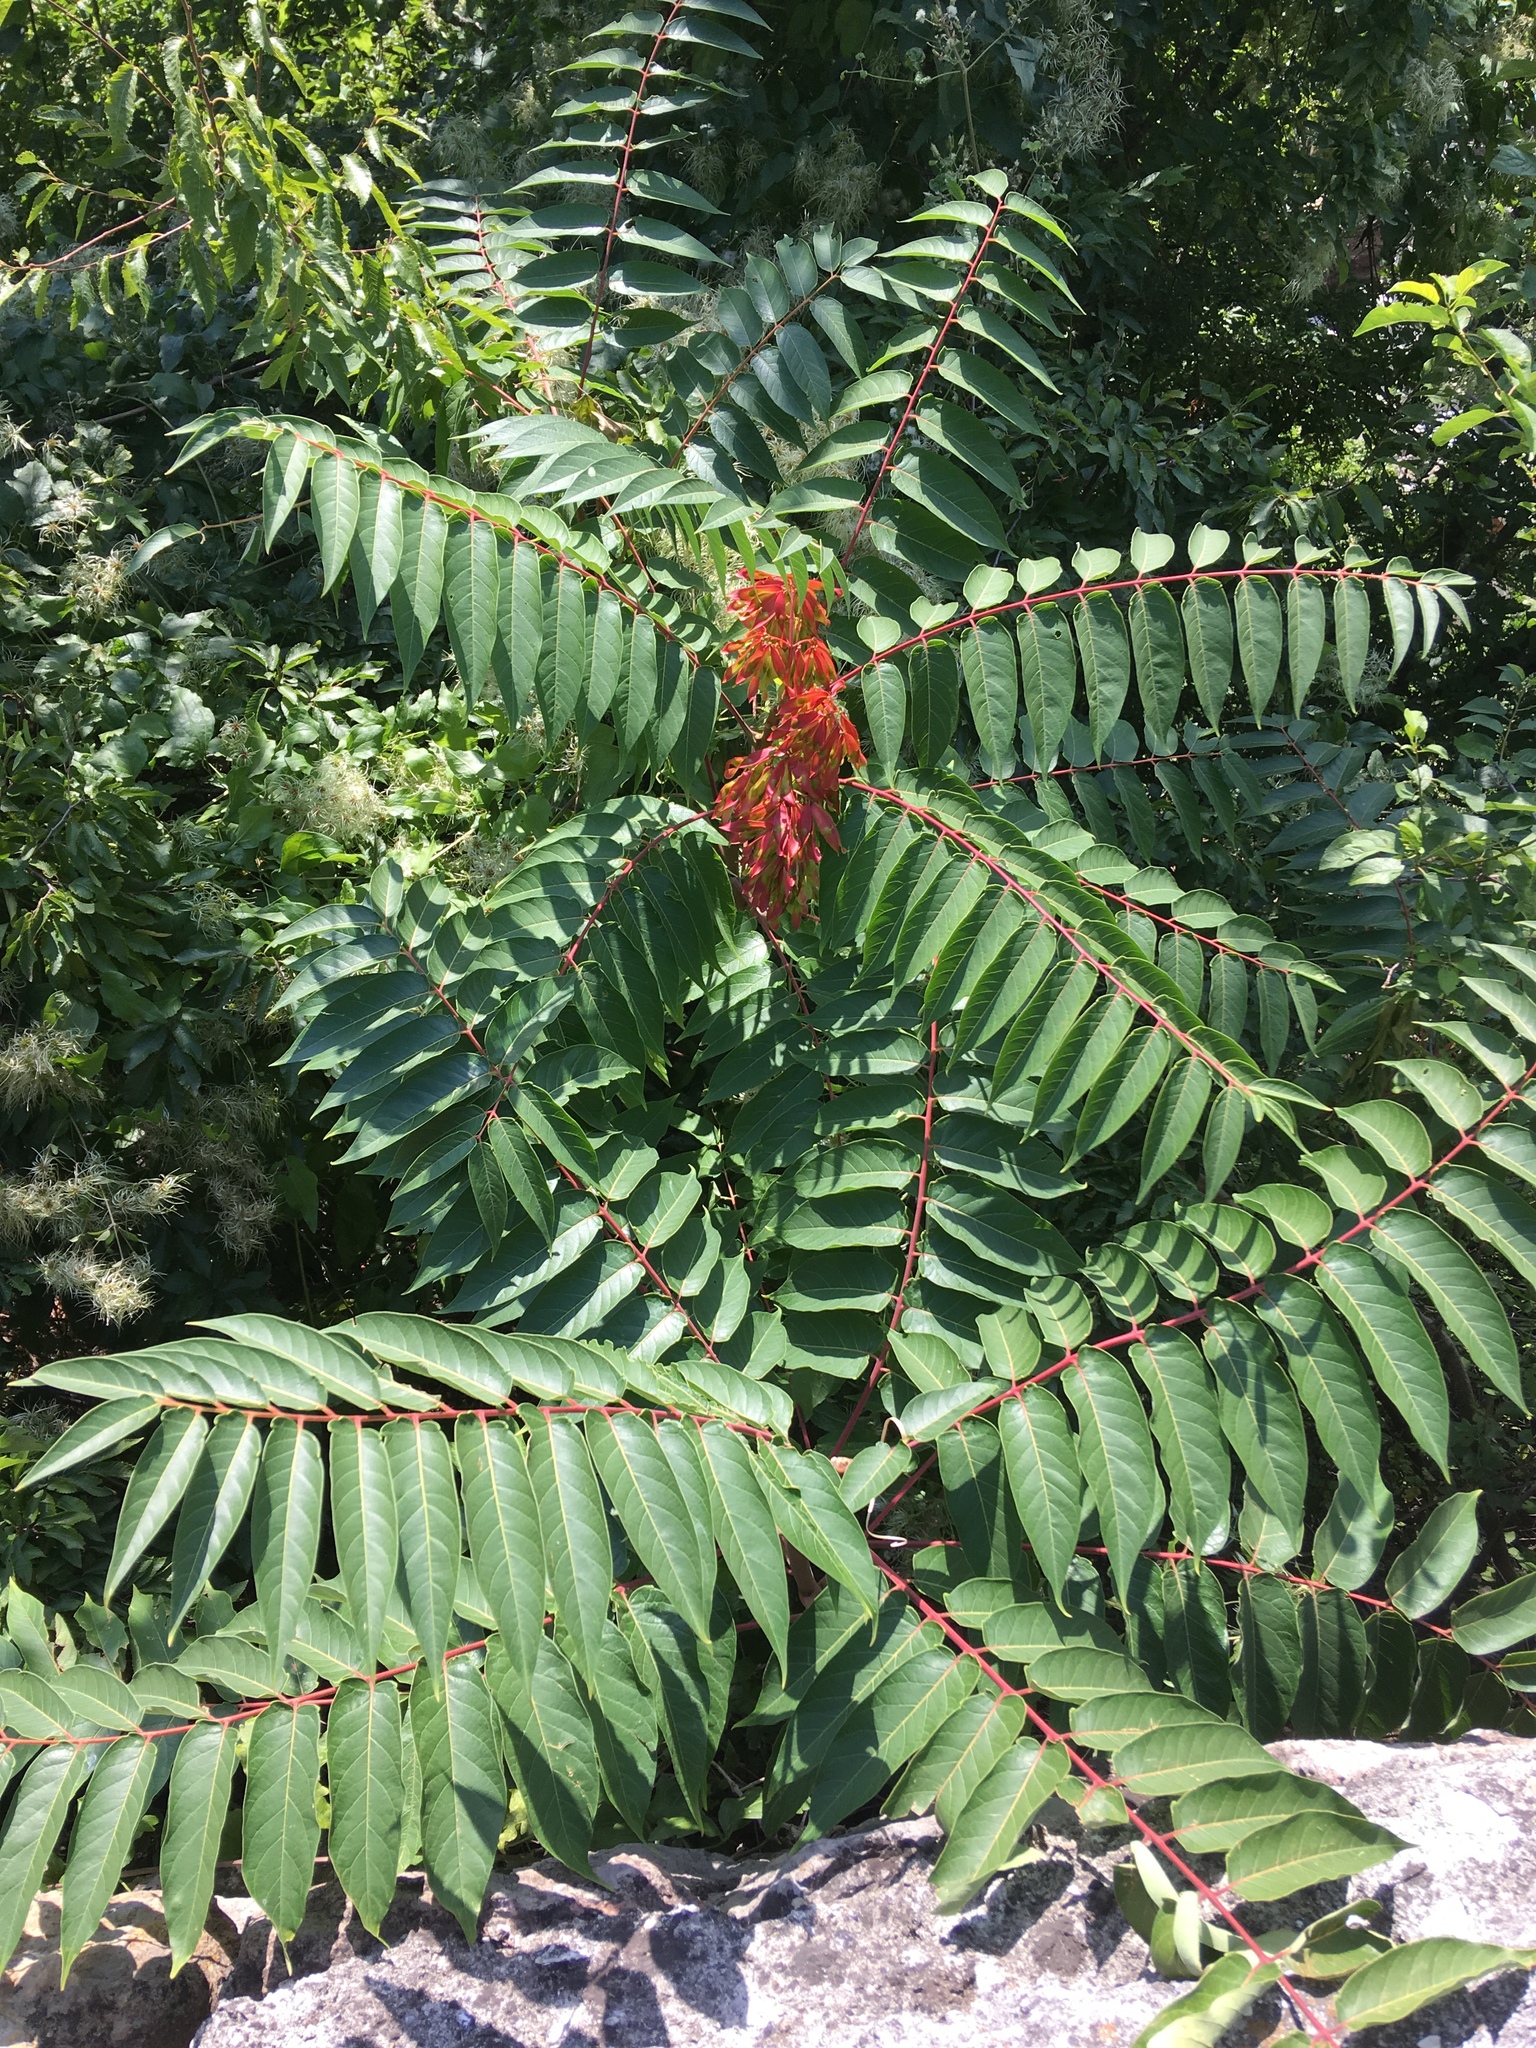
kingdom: Plantae
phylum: Tracheophyta
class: Magnoliopsida
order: Sapindales
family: Simaroubaceae
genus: Ailanthus
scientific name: Ailanthus altissima
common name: Tree-of-heaven
